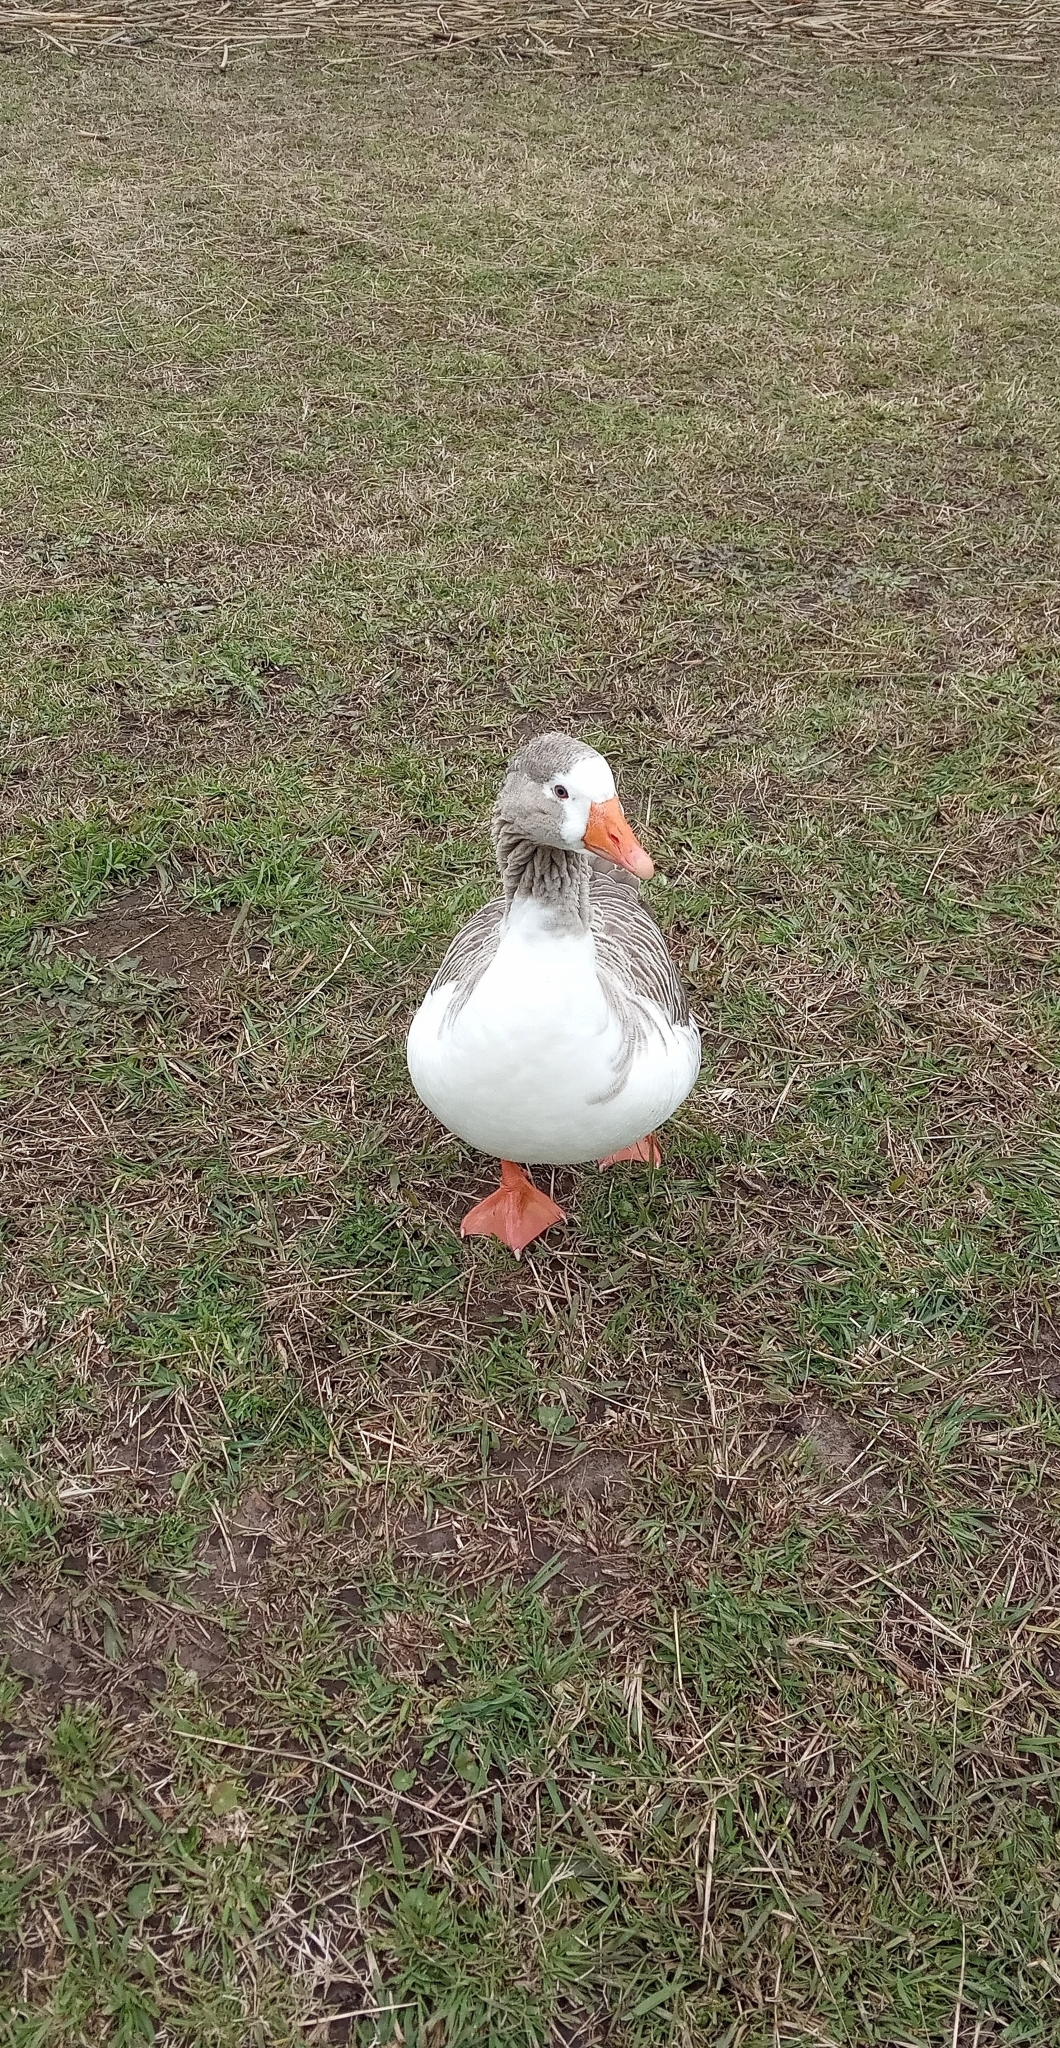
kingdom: Animalia
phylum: Chordata
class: Aves
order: Anseriformes
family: Anatidae
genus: Anser
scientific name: Anser anser
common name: Greylag goose
